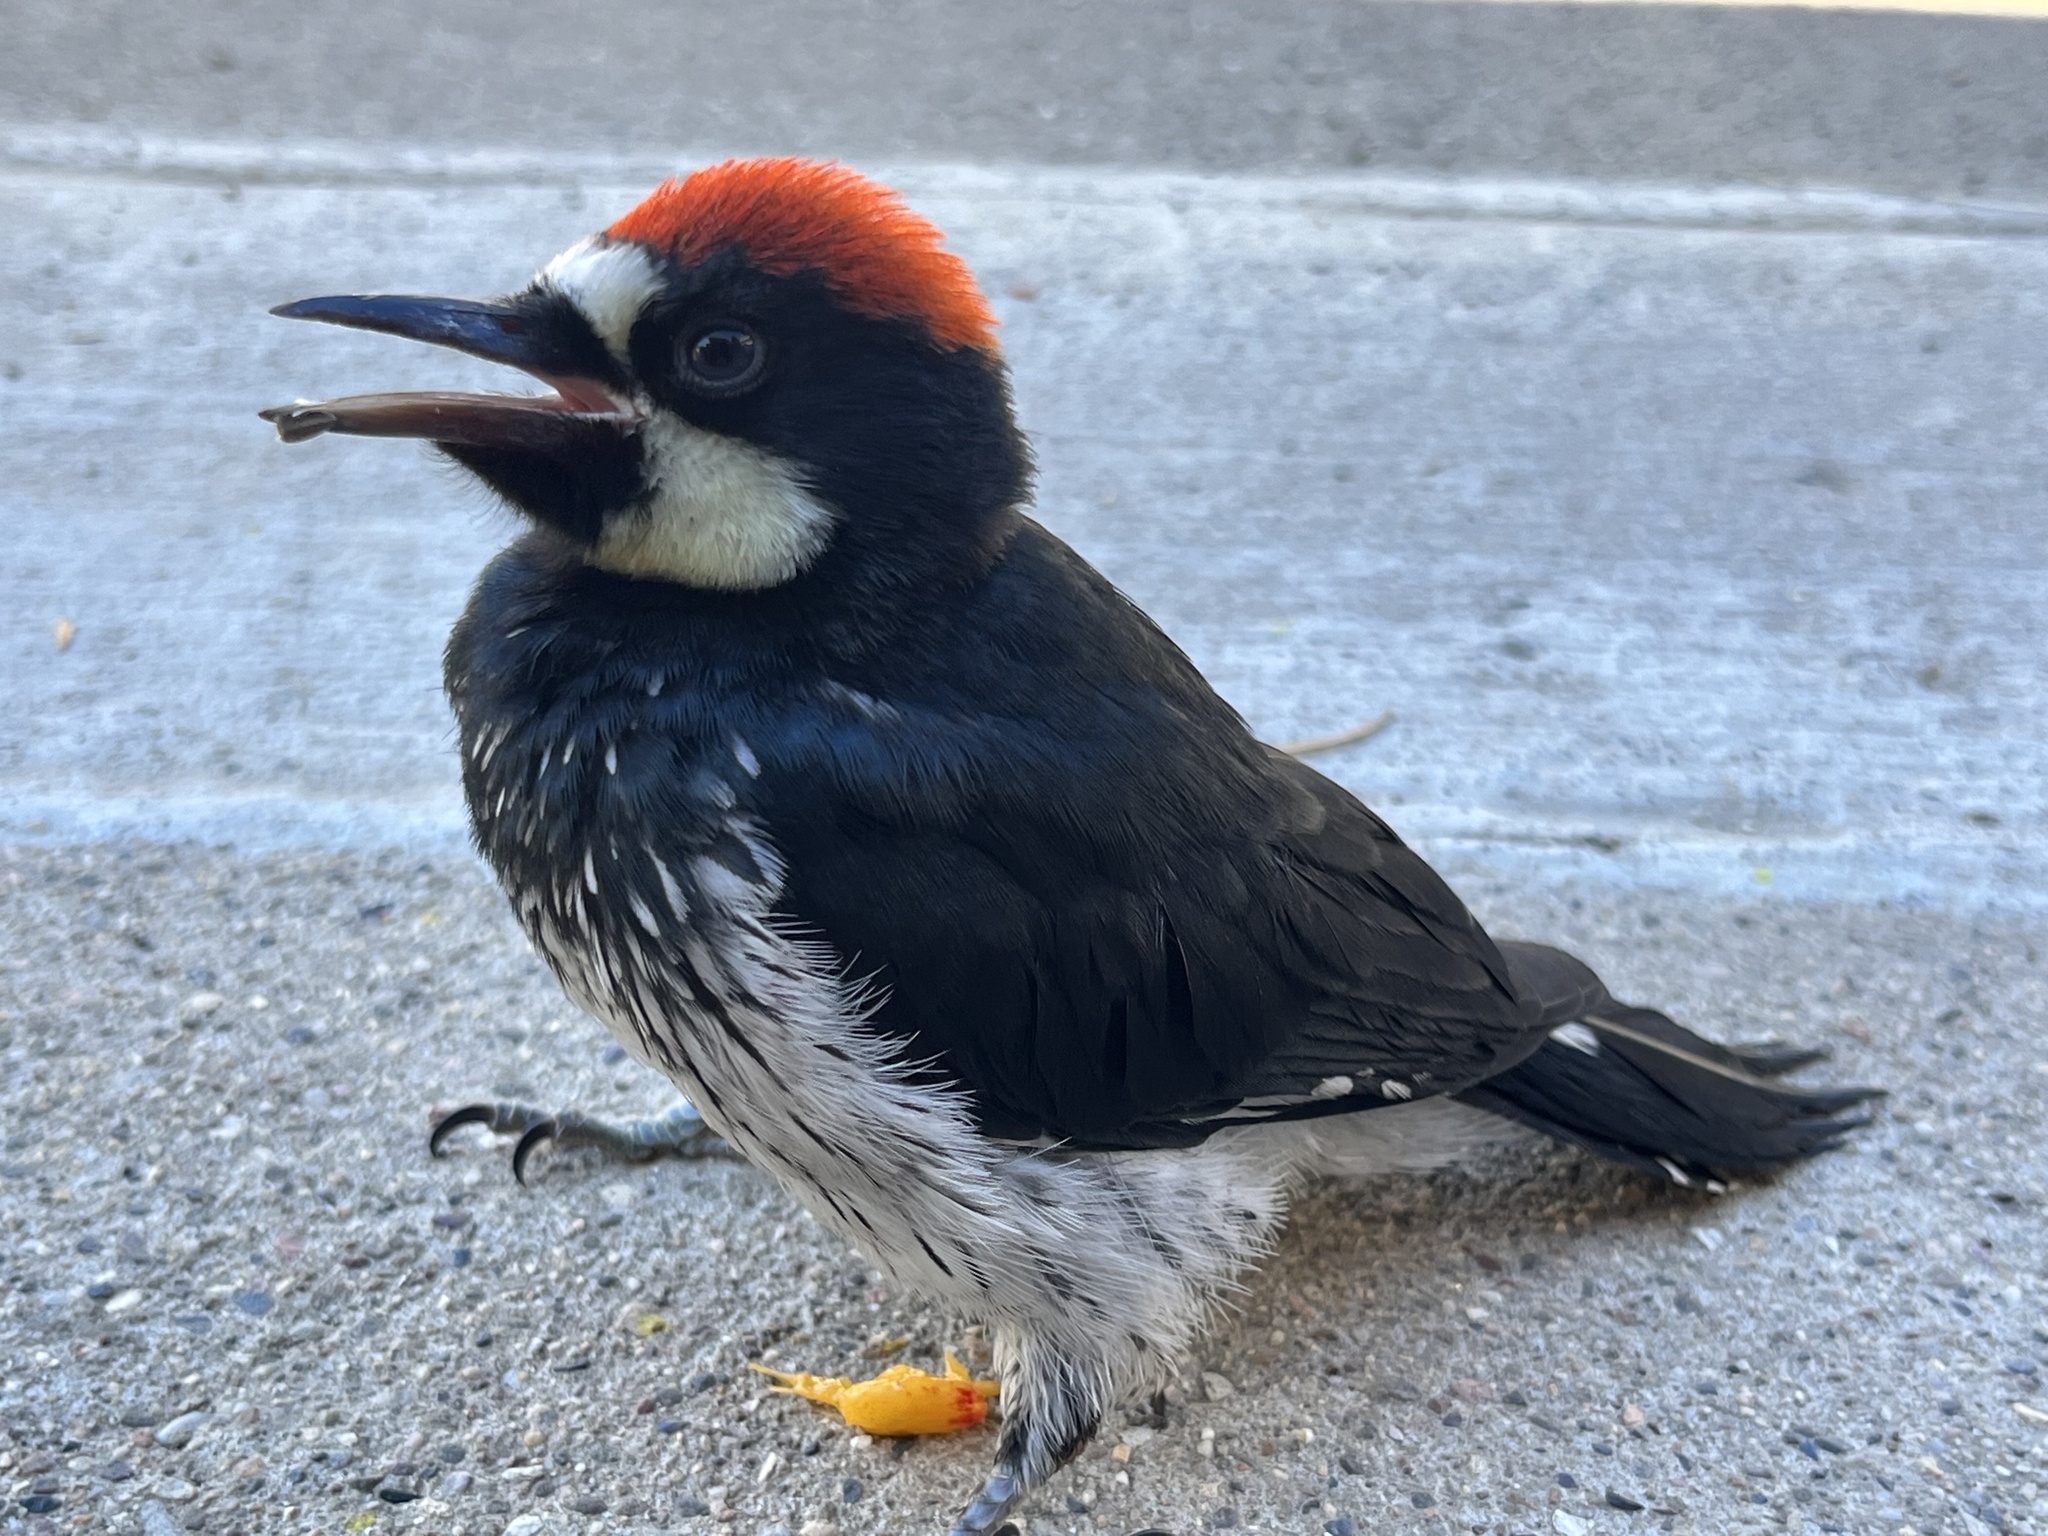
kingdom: Animalia
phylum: Chordata
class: Aves
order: Piciformes
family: Picidae
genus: Melanerpes
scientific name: Melanerpes formicivorus
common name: Acorn woodpecker
